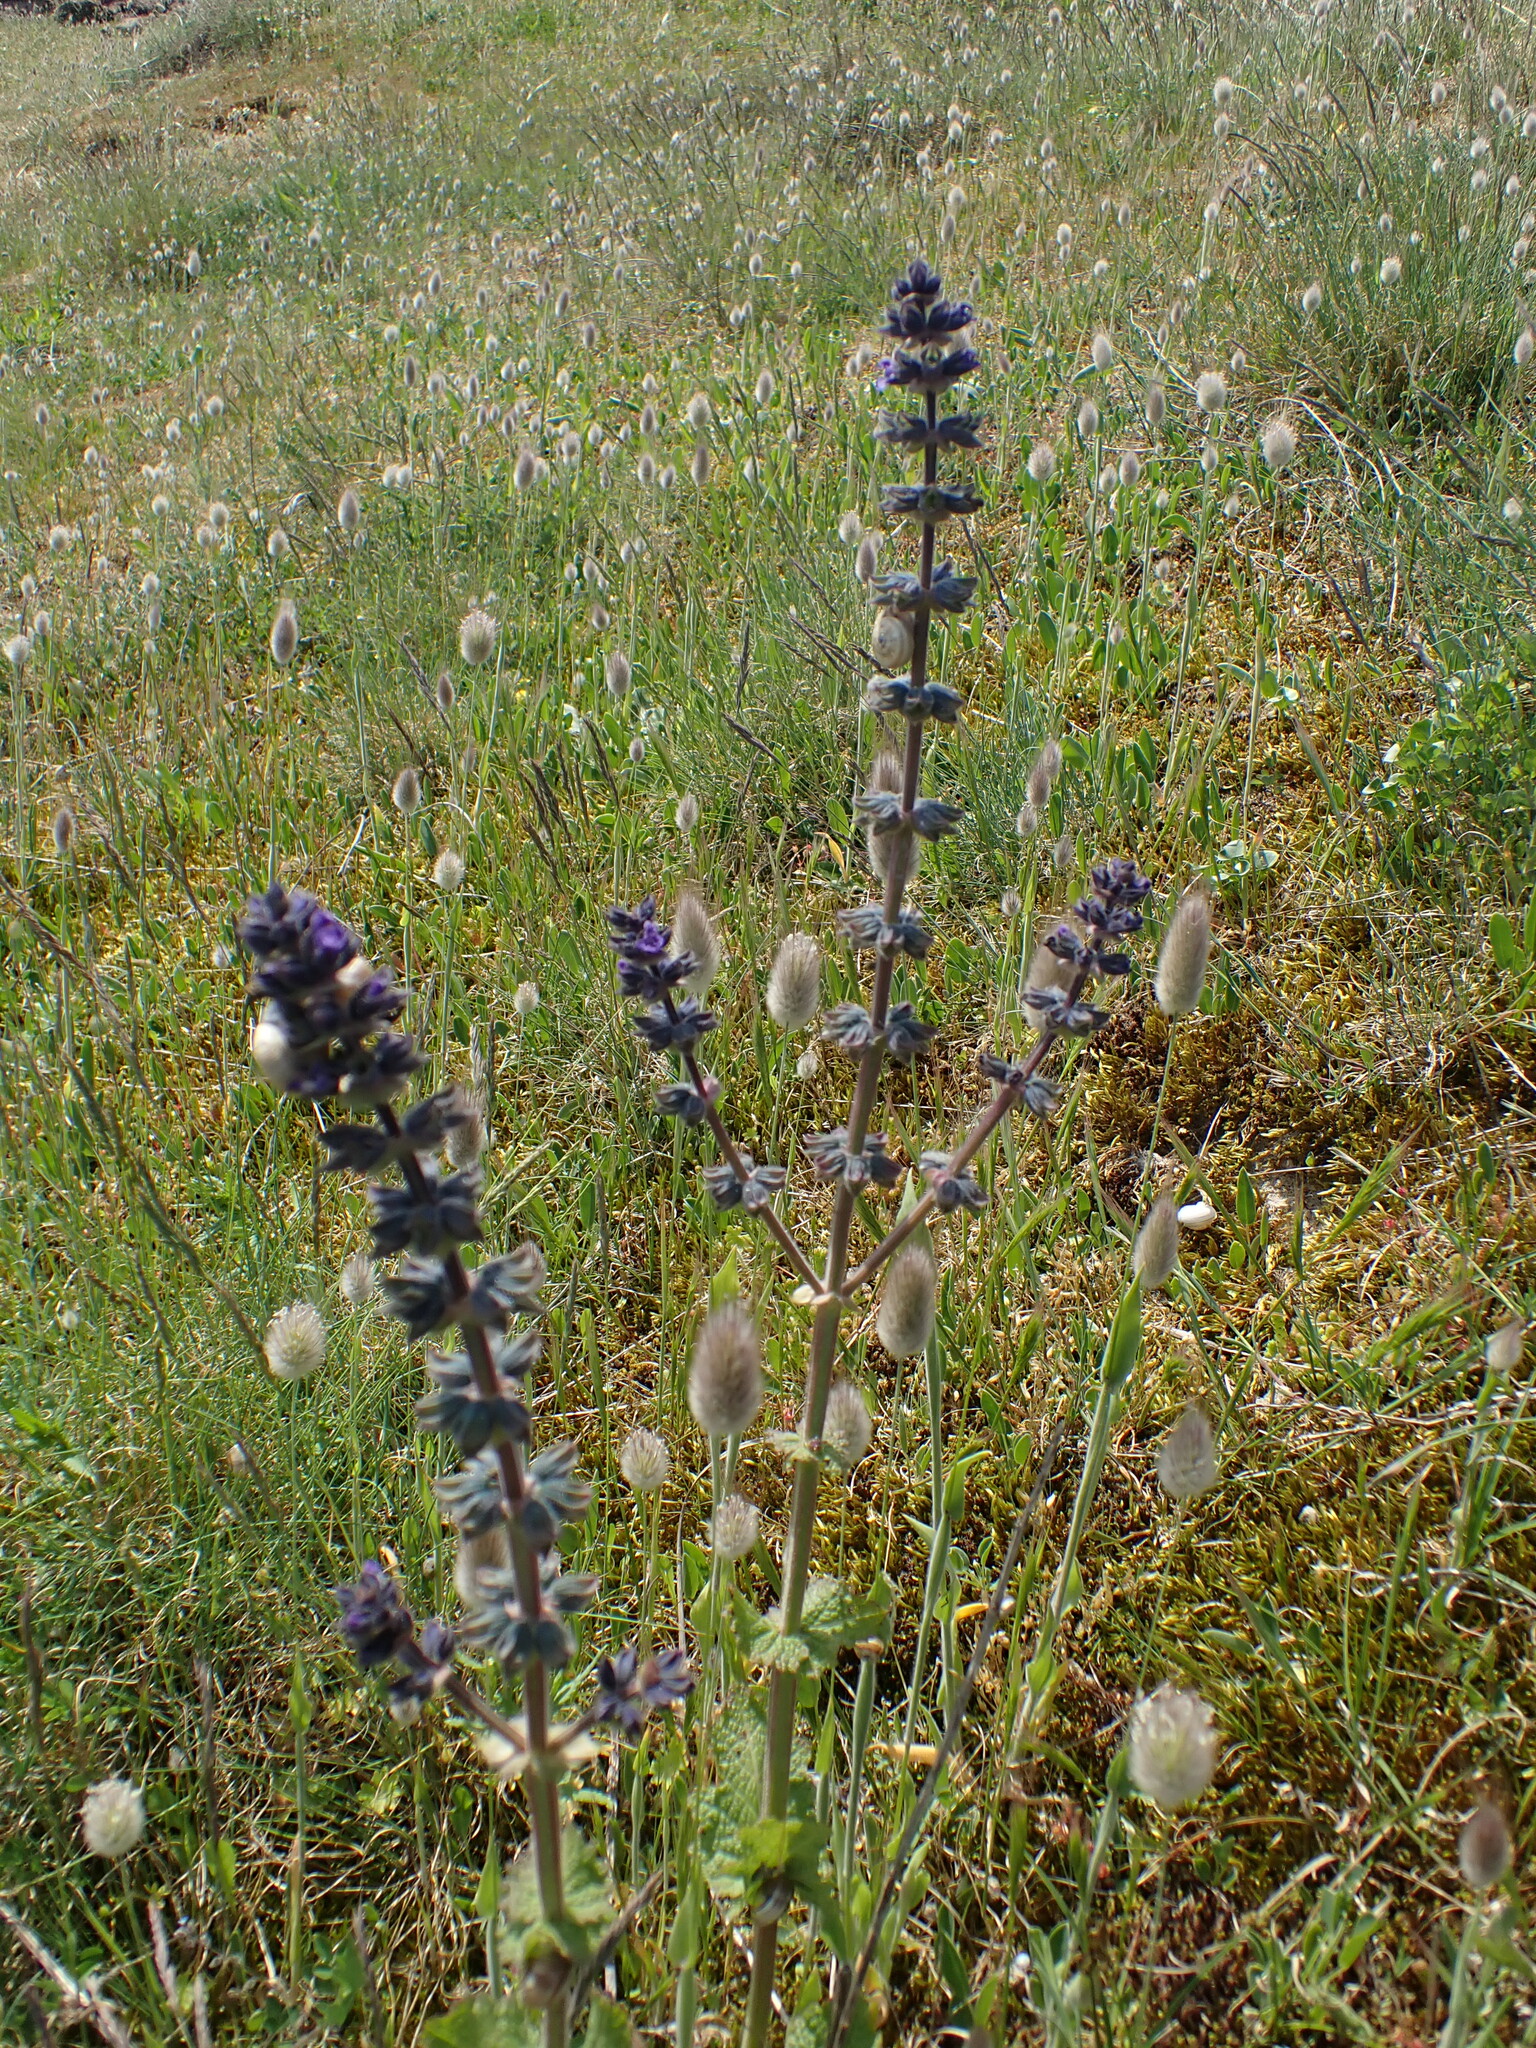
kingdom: Plantae
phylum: Tracheophyta
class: Magnoliopsida
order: Lamiales
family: Lamiaceae
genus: Salvia
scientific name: Salvia verbenaca
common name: Wild clary
